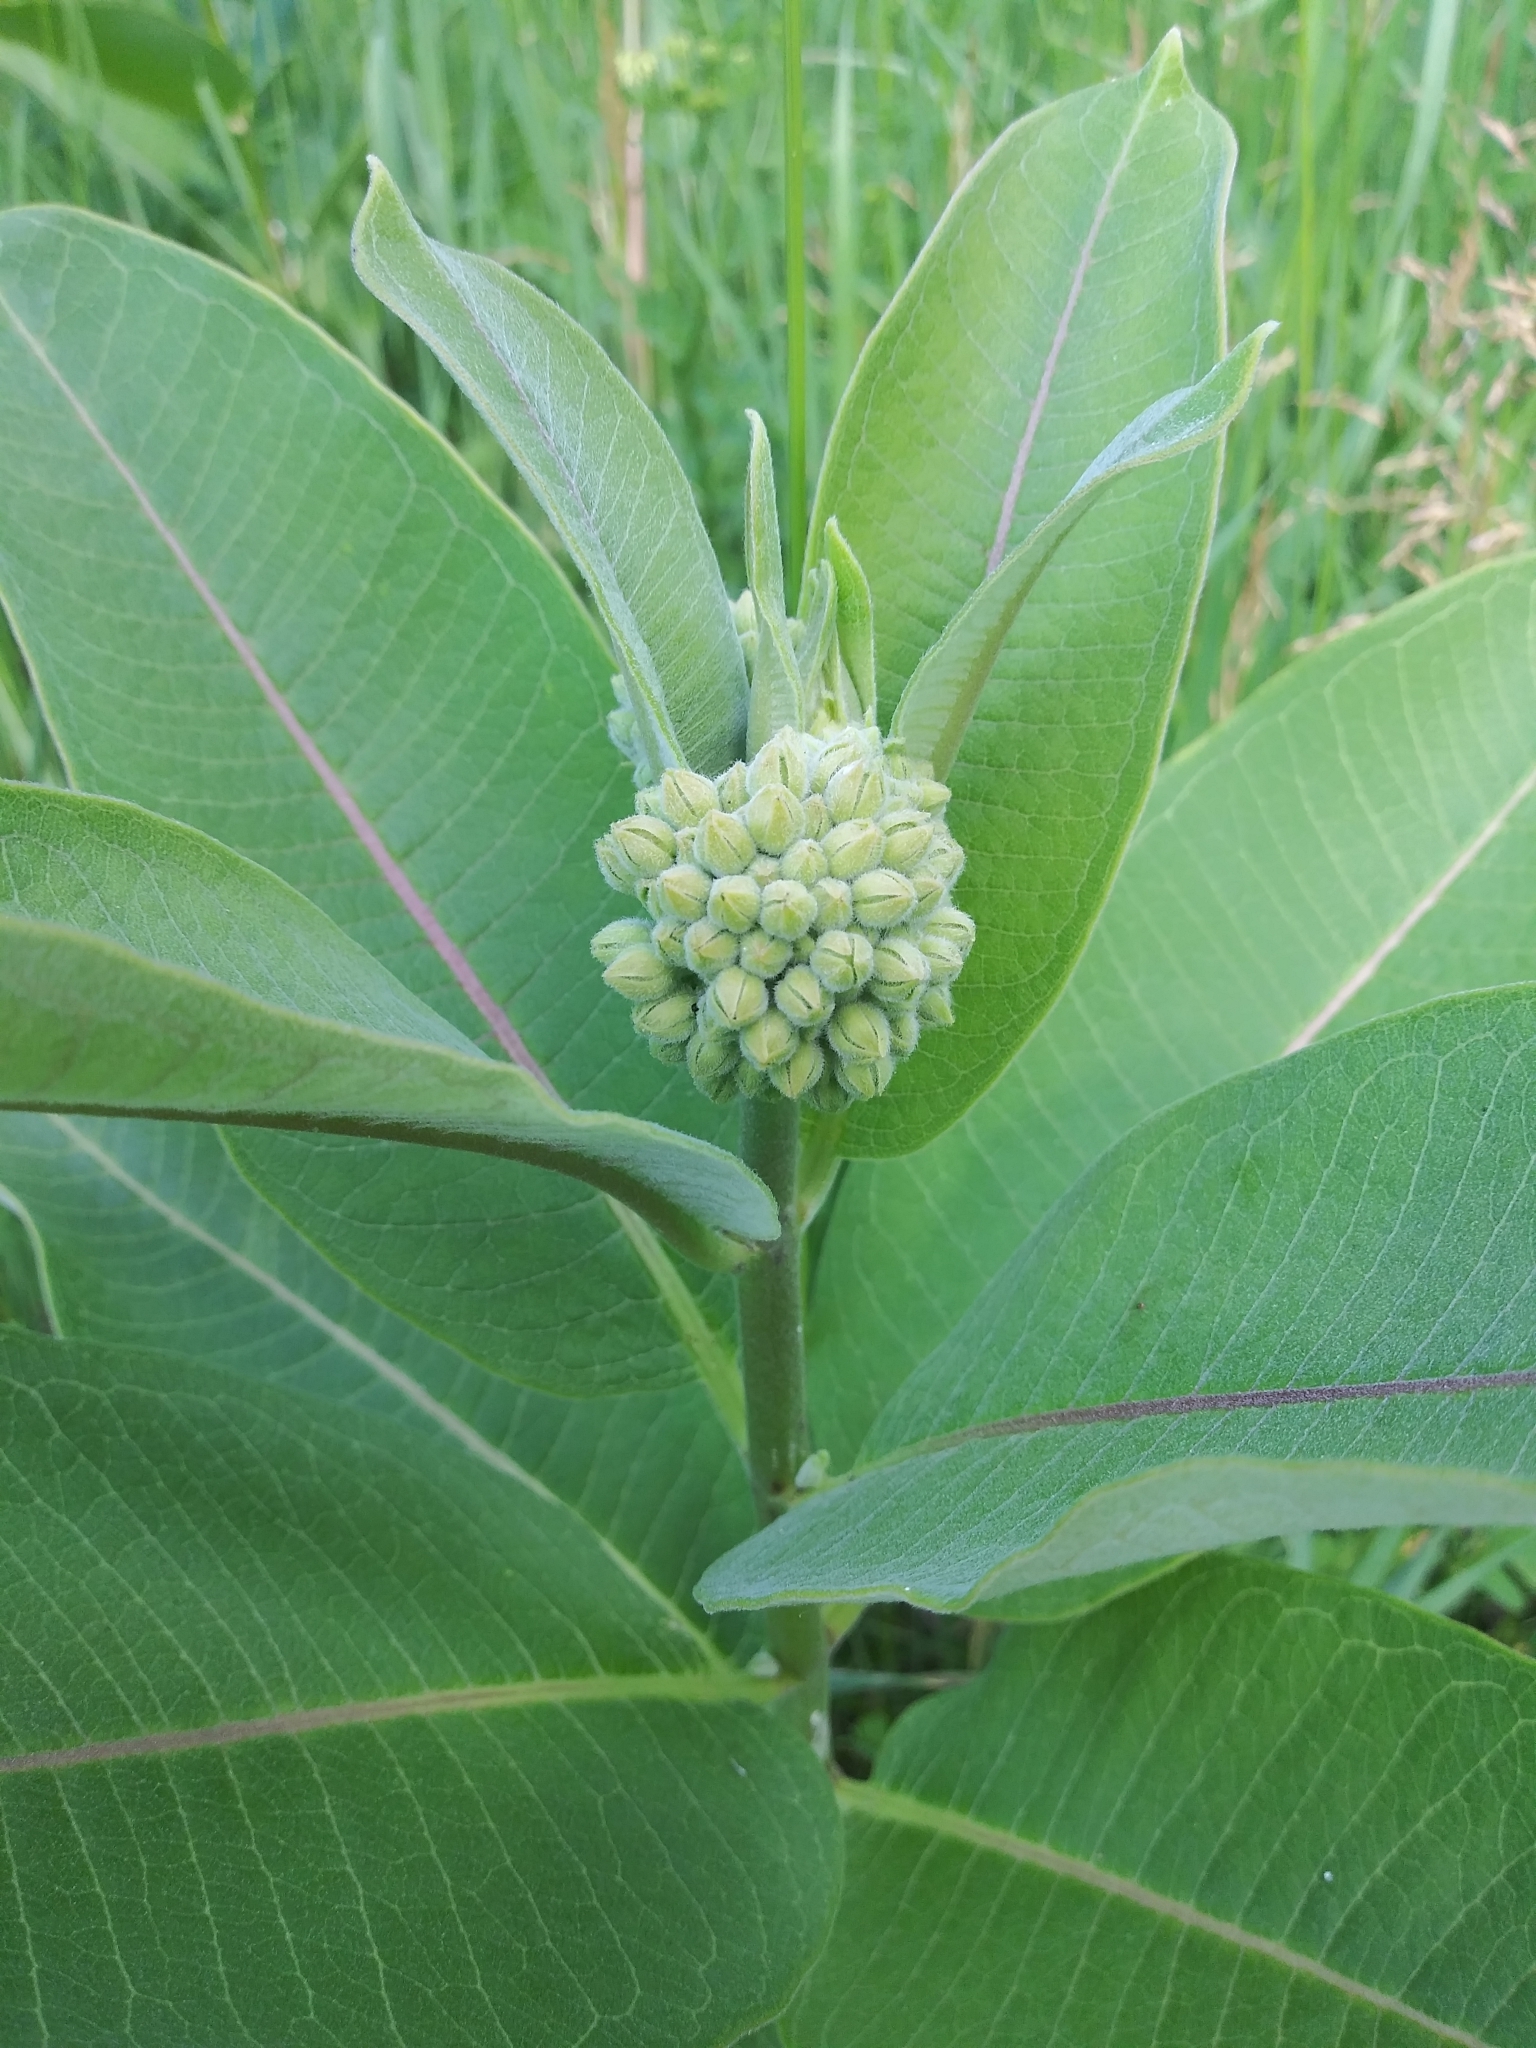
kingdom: Plantae
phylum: Tracheophyta
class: Magnoliopsida
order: Gentianales
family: Apocynaceae
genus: Asclepias
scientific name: Asclepias syriaca
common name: Common milkweed
